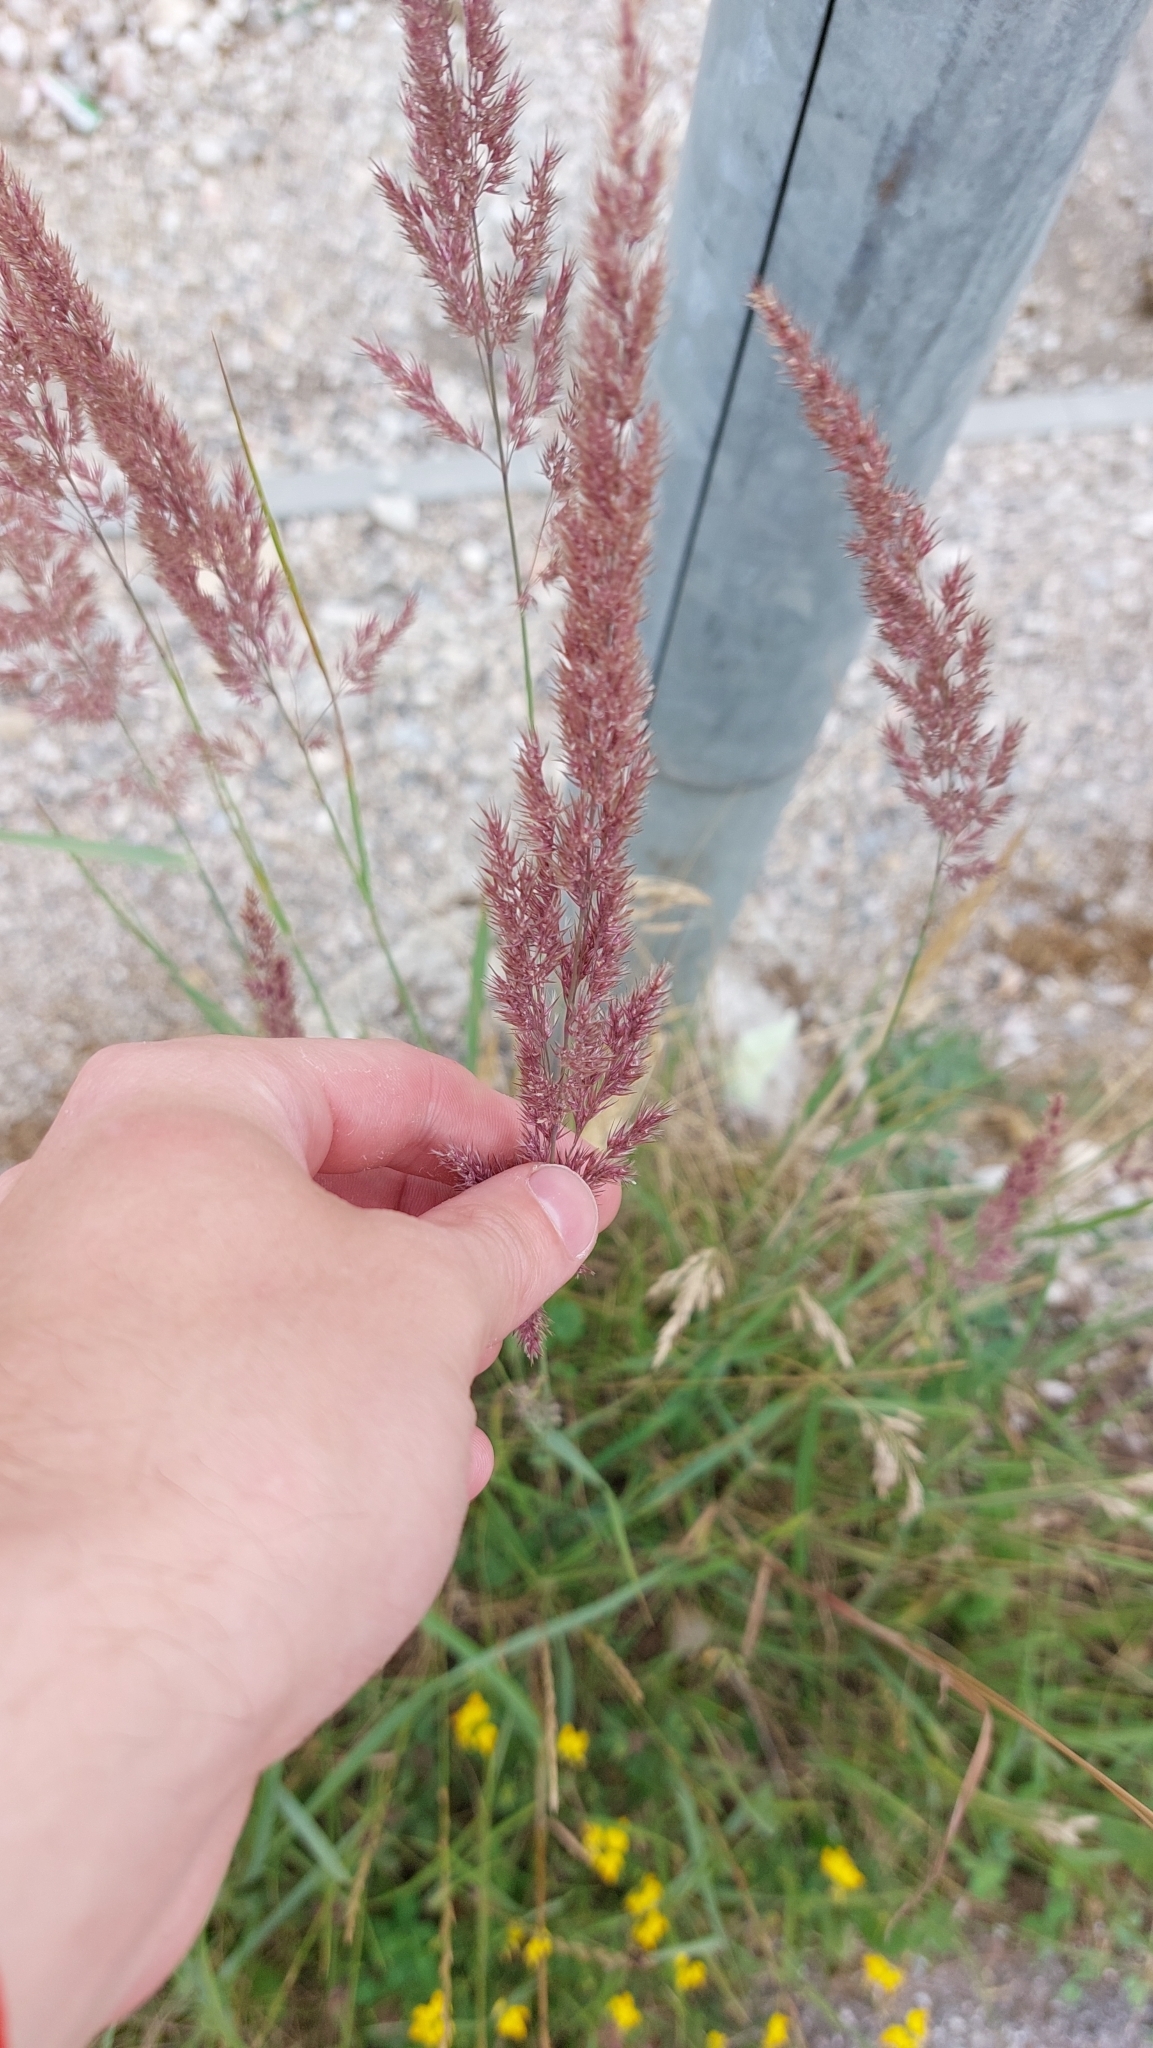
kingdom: Plantae
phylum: Tracheophyta
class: Liliopsida
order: Poales
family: Poaceae
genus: Calamagrostis
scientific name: Calamagrostis epigejos
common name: Wood small-reed
